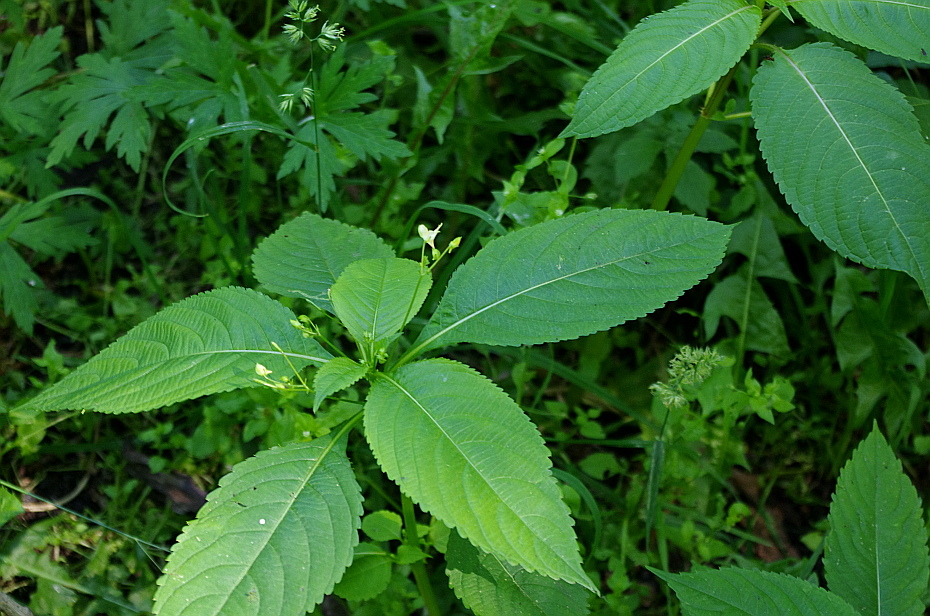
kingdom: Plantae
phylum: Tracheophyta
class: Magnoliopsida
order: Ericales
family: Balsaminaceae
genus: Impatiens
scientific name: Impatiens parviflora
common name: Small balsam
